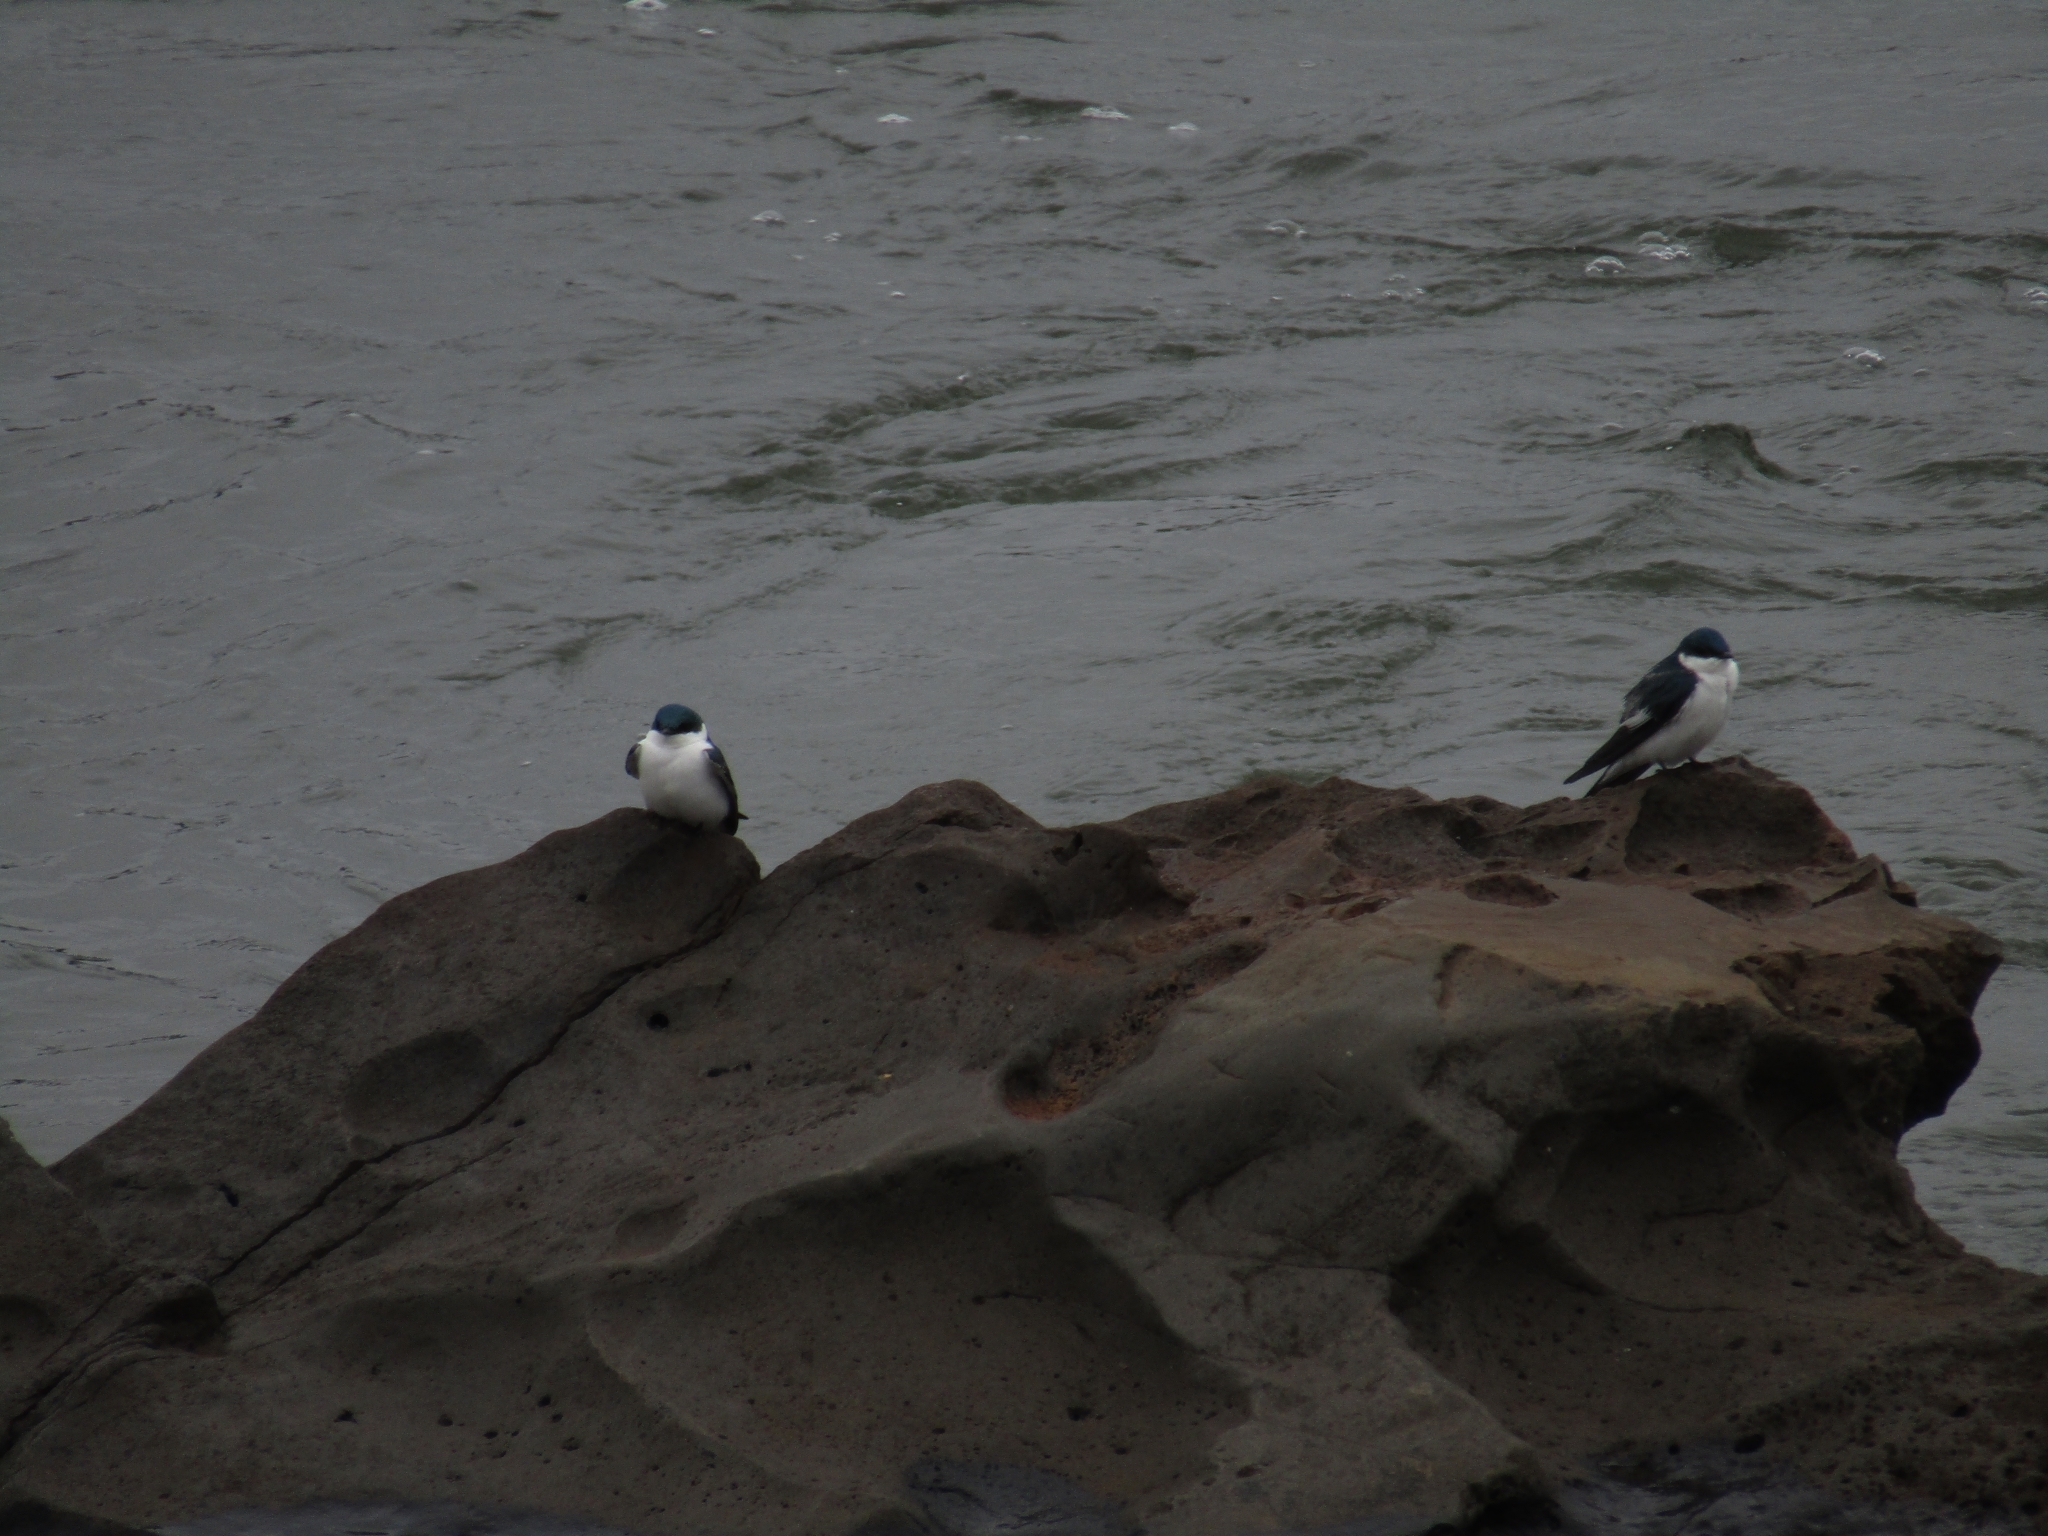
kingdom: Animalia
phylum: Chordata
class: Aves
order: Passeriformes
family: Hirundinidae
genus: Tachycineta
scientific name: Tachycineta albiventer
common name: White-winged swallow
